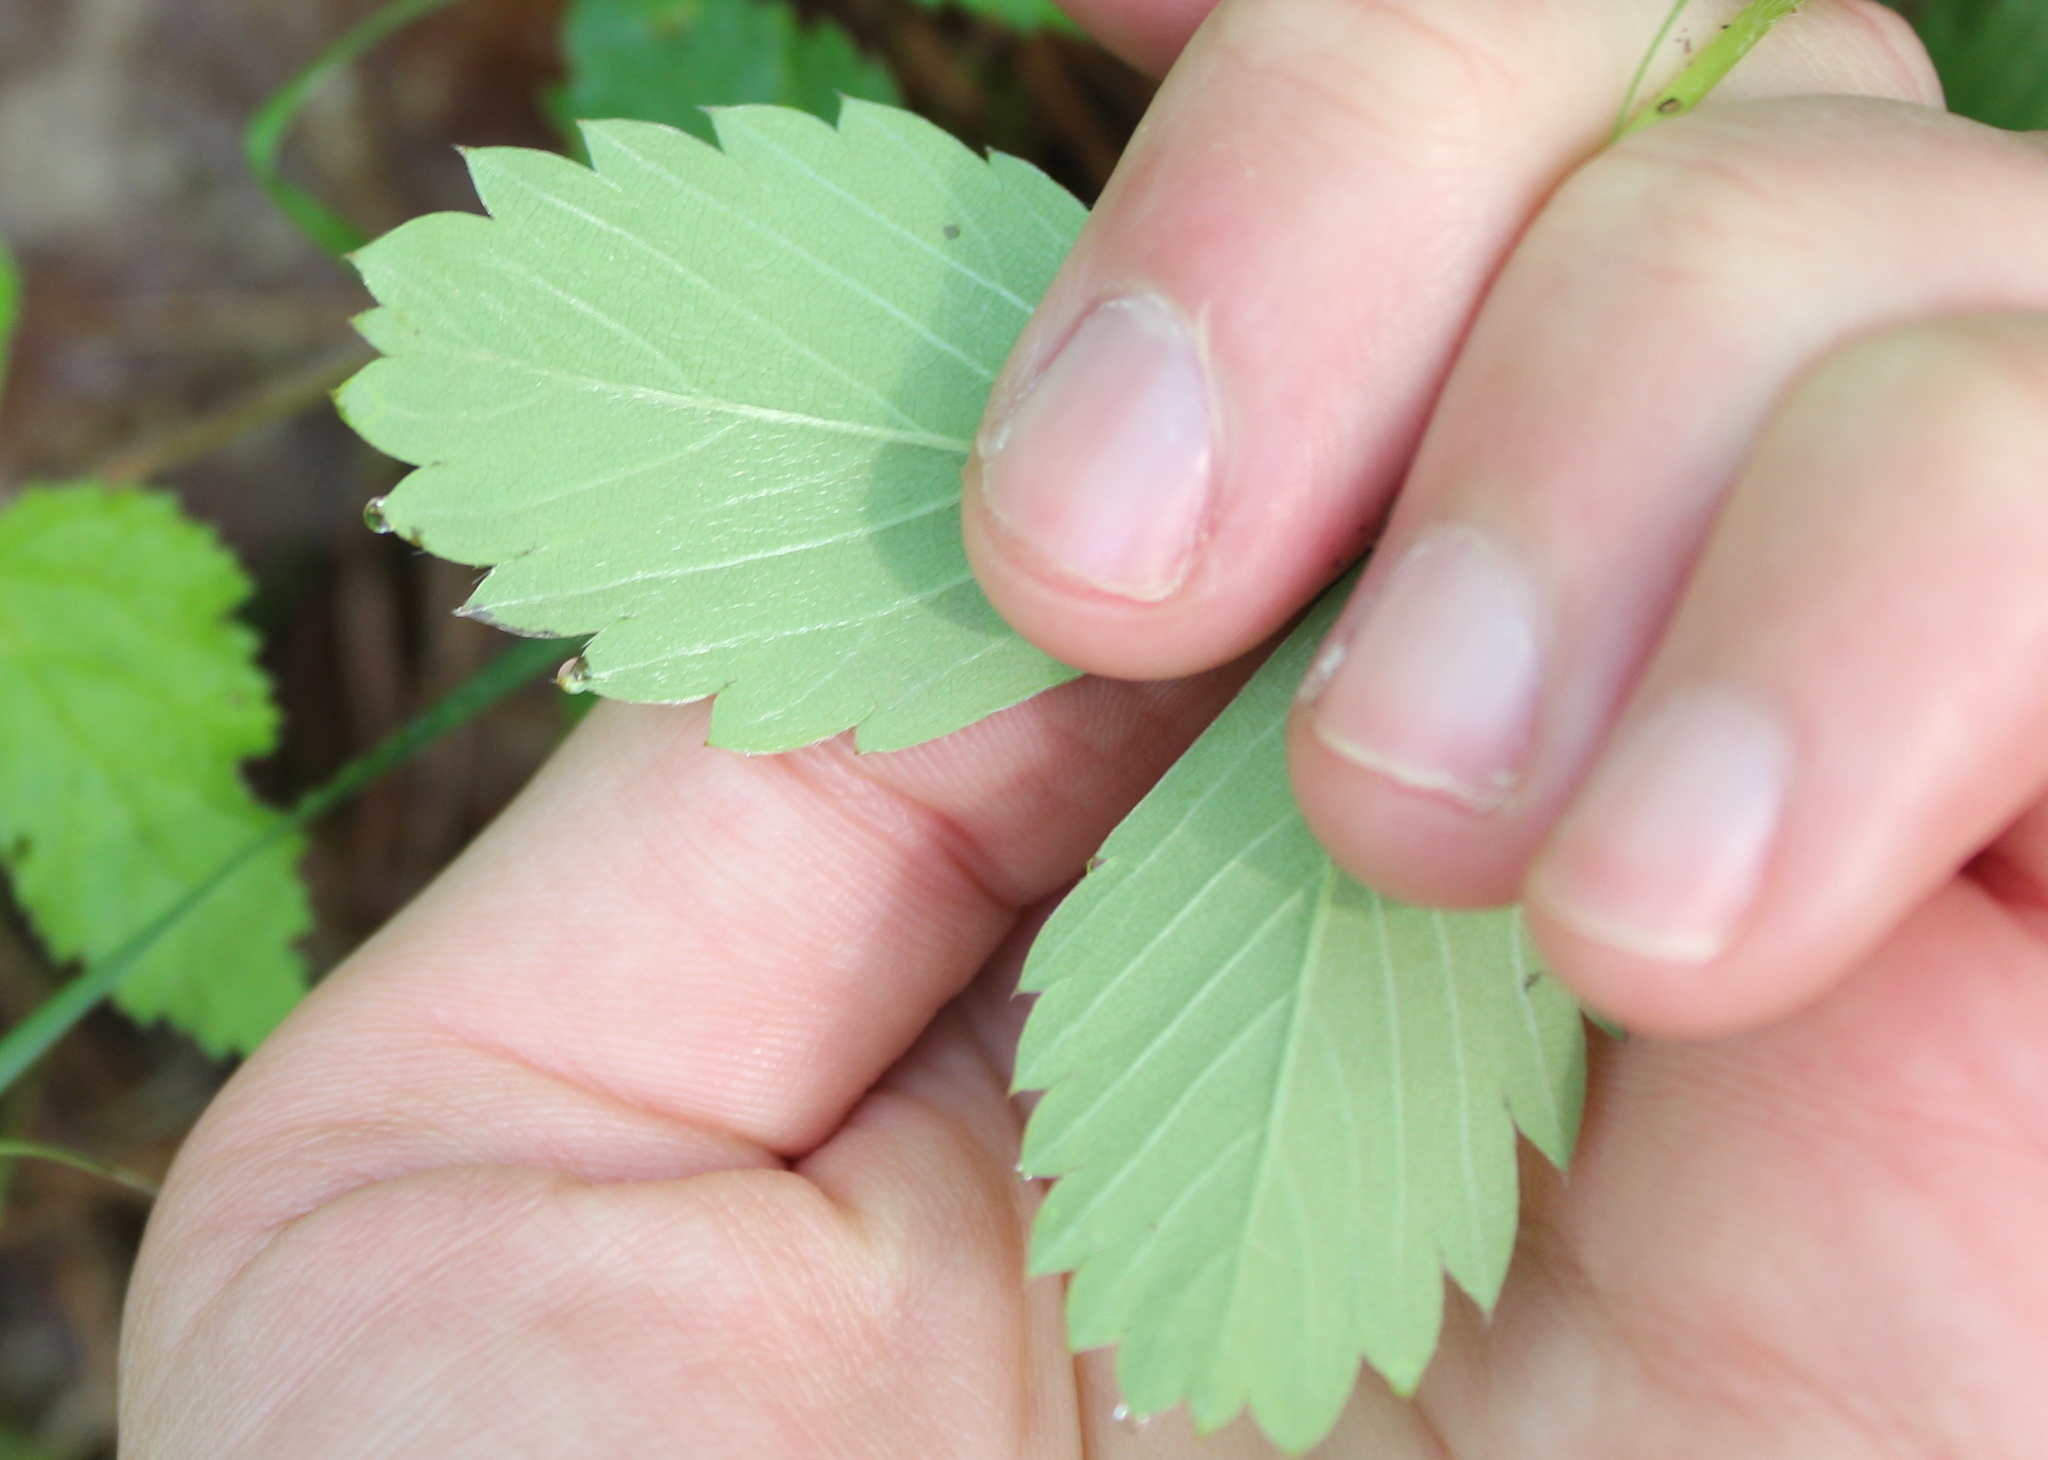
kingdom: Plantae
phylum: Tracheophyta
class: Magnoliopsida
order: Rosales
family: Rosaceae
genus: Fragaria
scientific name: Fragaria virginiana
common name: Thickleaved wild strawberry
